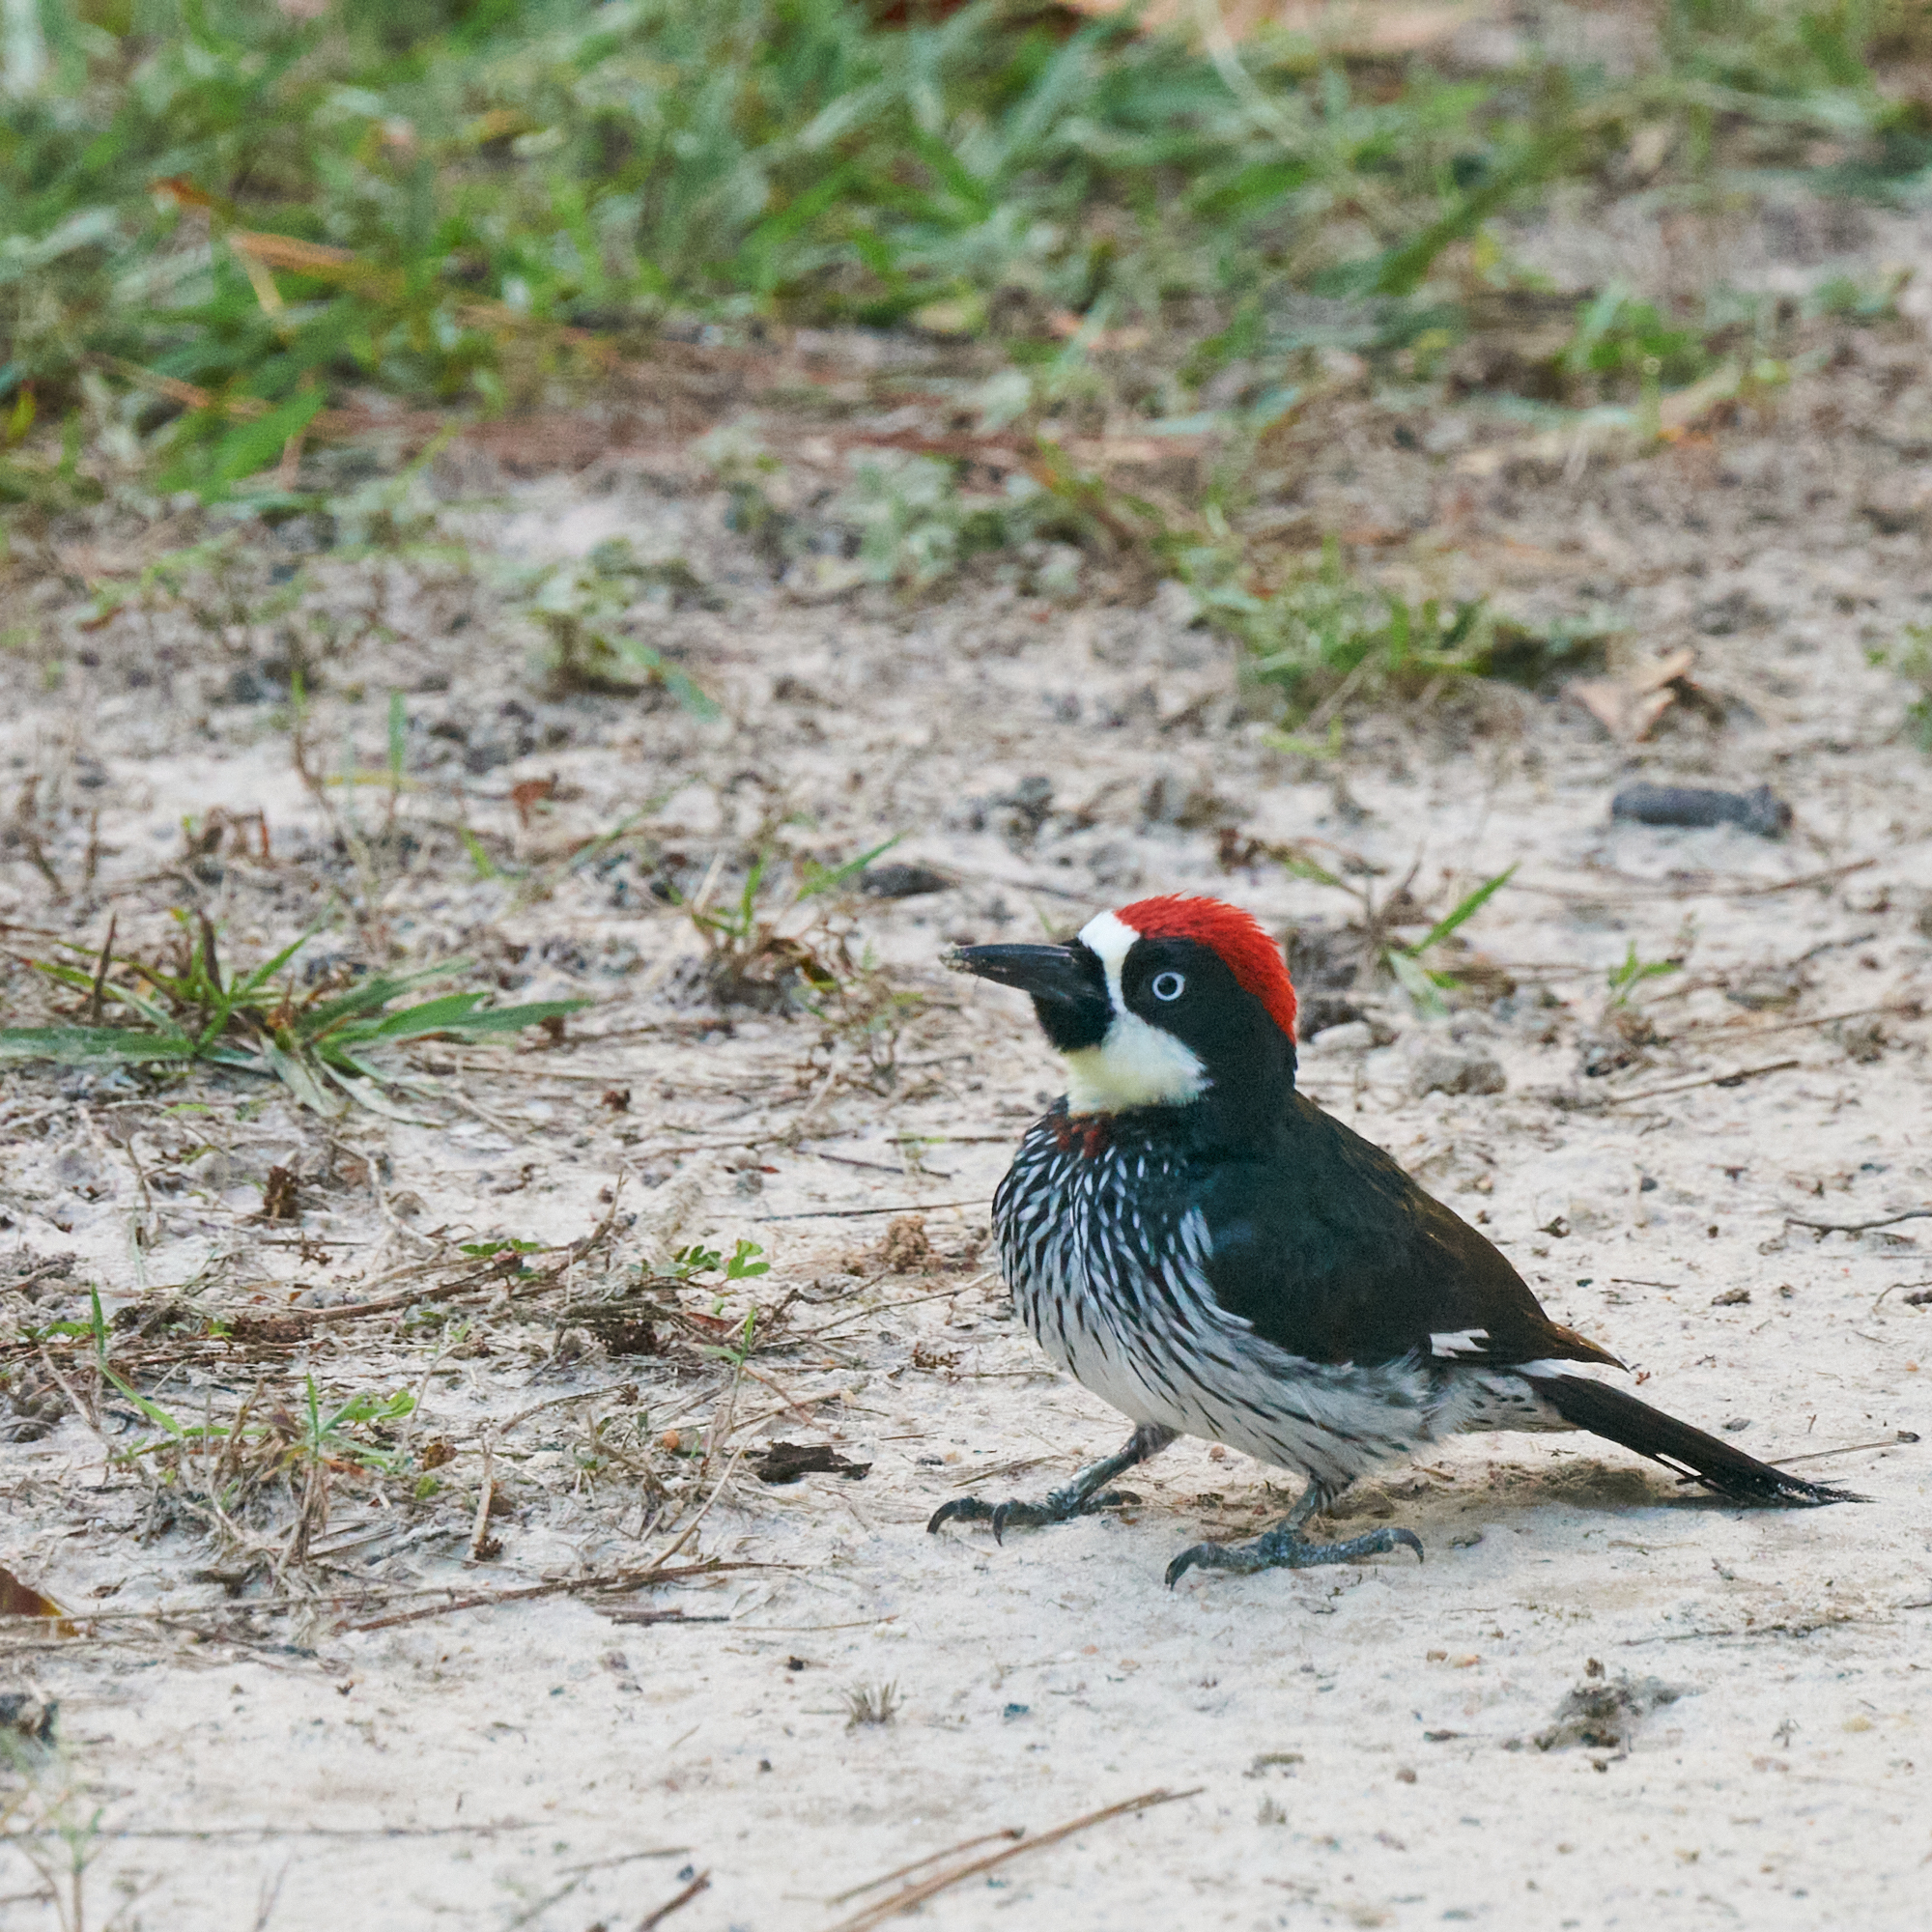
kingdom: Animalia
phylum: Chordata
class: Aves
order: Piciformes
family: Picidae
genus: Melanerpes
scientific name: Melanerpes formicivorus
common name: Acorn woodpecker
